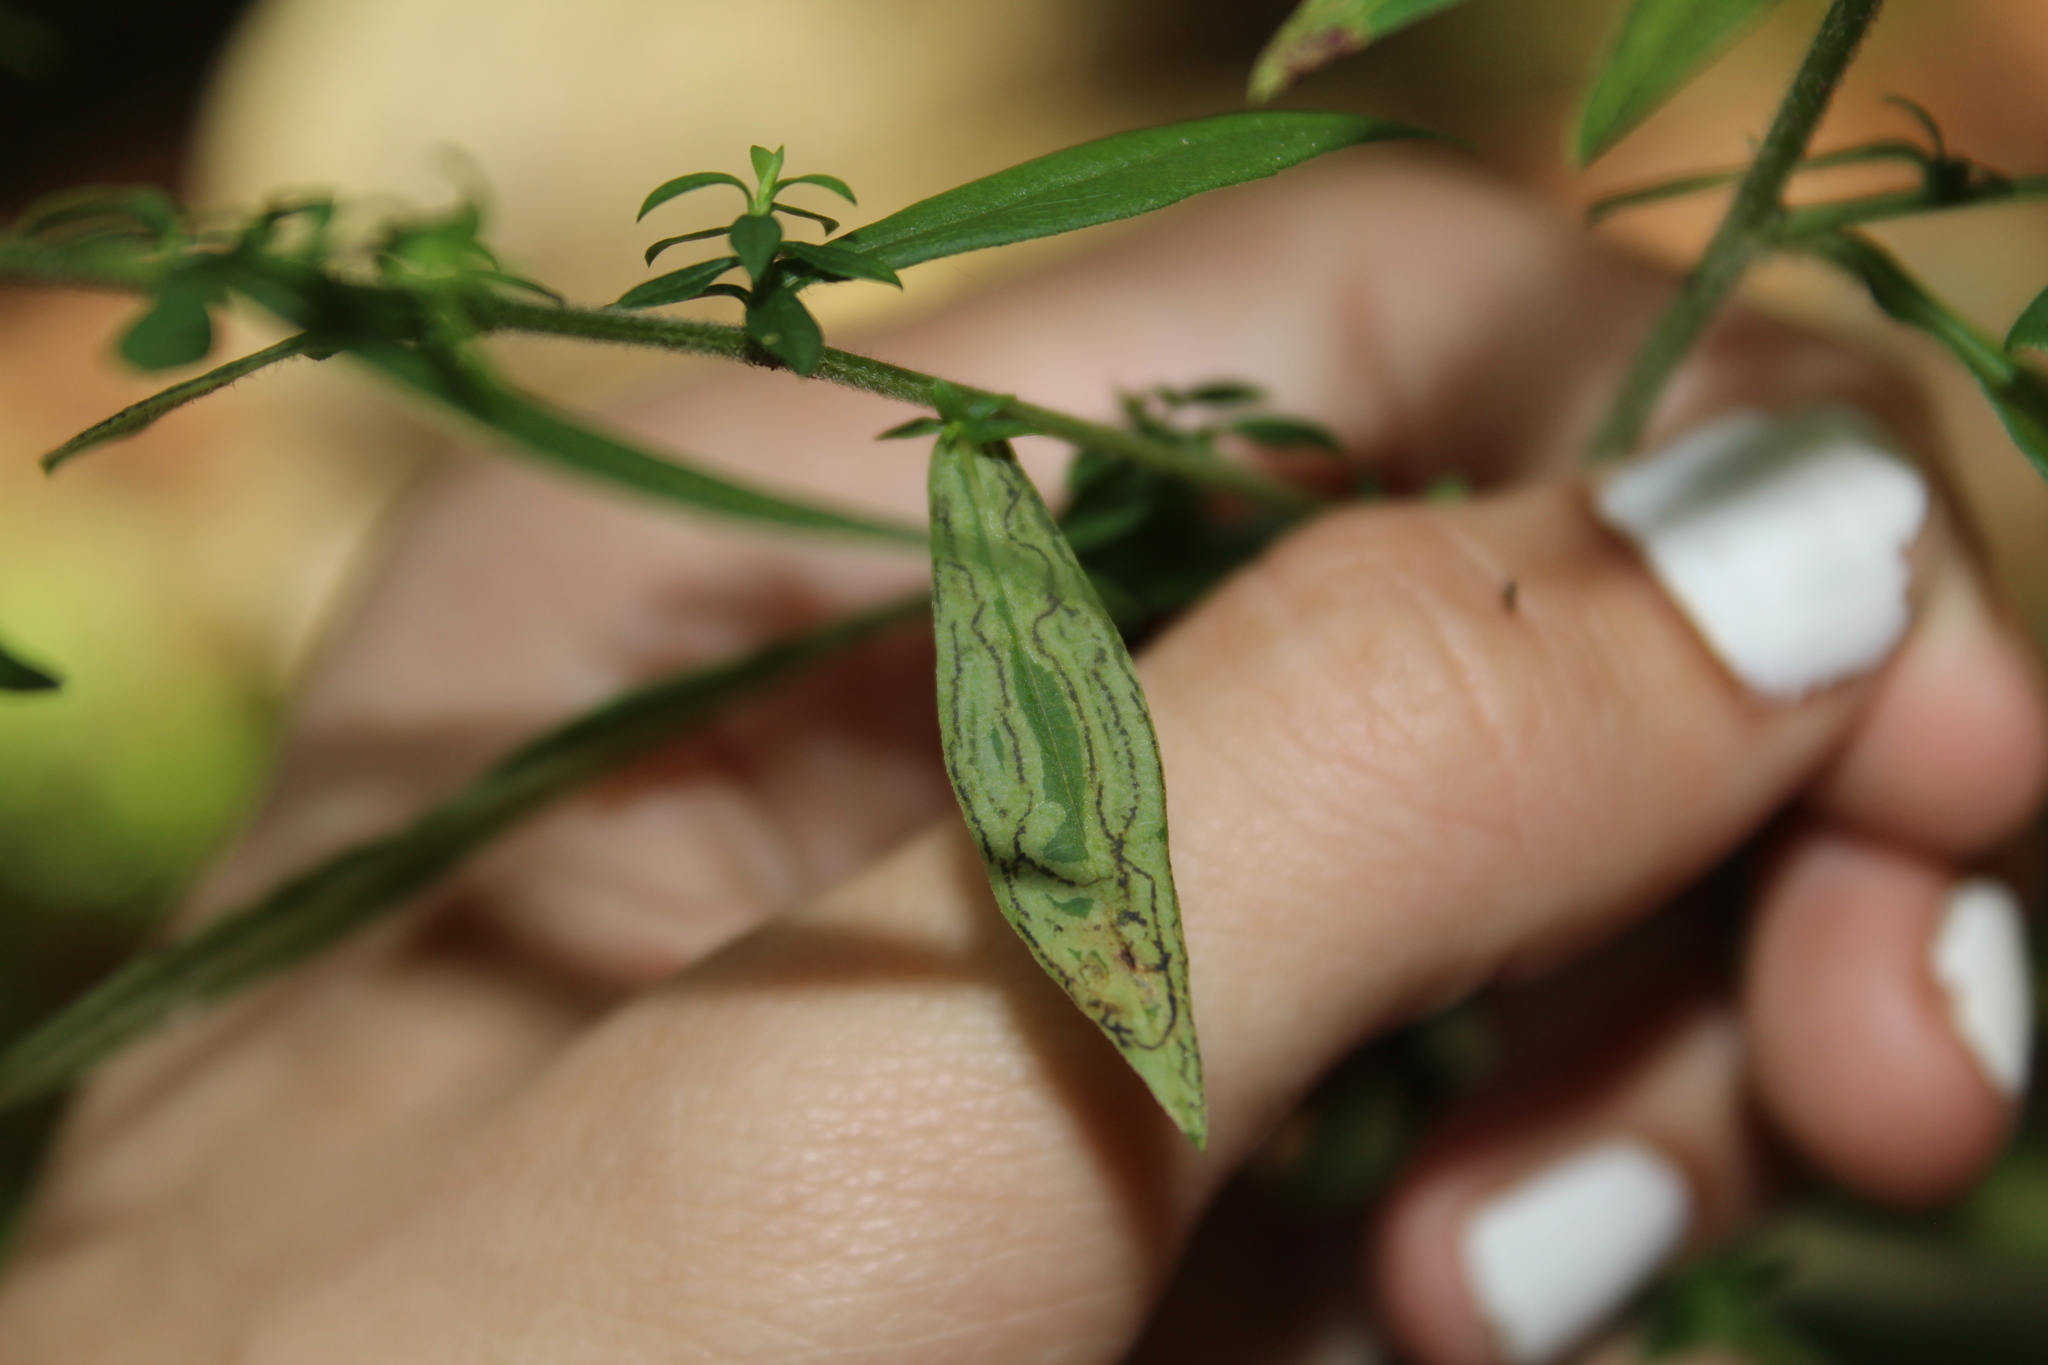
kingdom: Animalia
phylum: Arthropoda
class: Insecta
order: Diptera
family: Agromyzidae
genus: Liriomyza
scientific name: Liriomyza eupatorii
